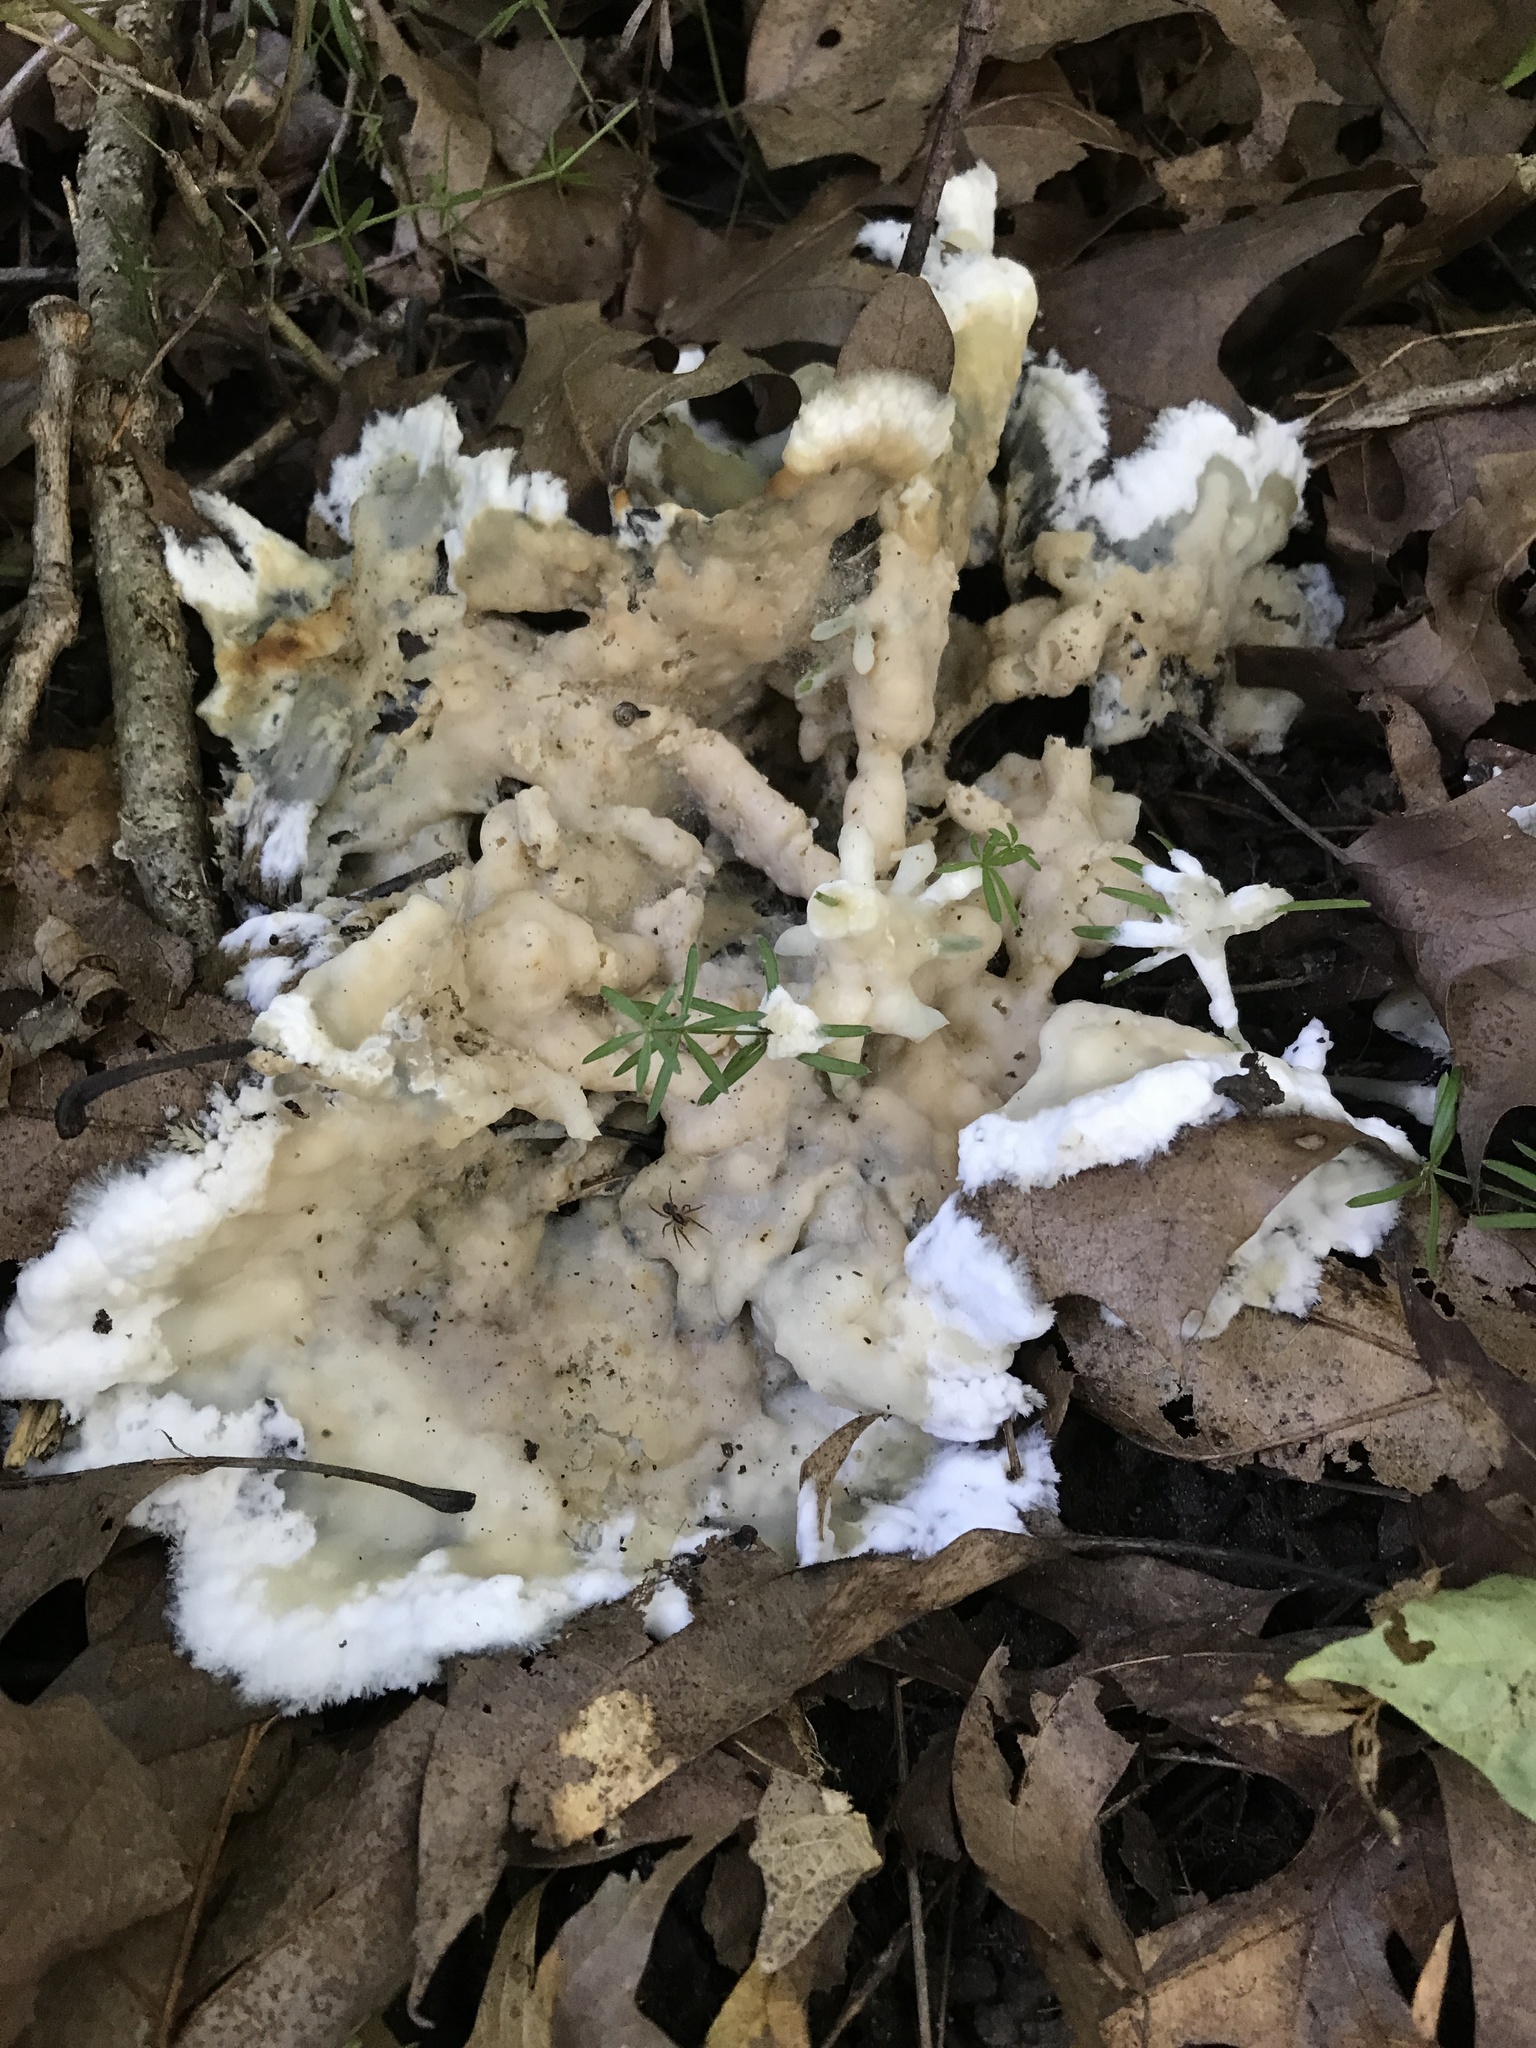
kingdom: Fungi
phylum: Basidiomycota
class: Agaricomycetes
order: Sebacinales
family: Sebacinaceae
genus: Sebacina
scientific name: Sebacina incrustans
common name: Enveloping crust
